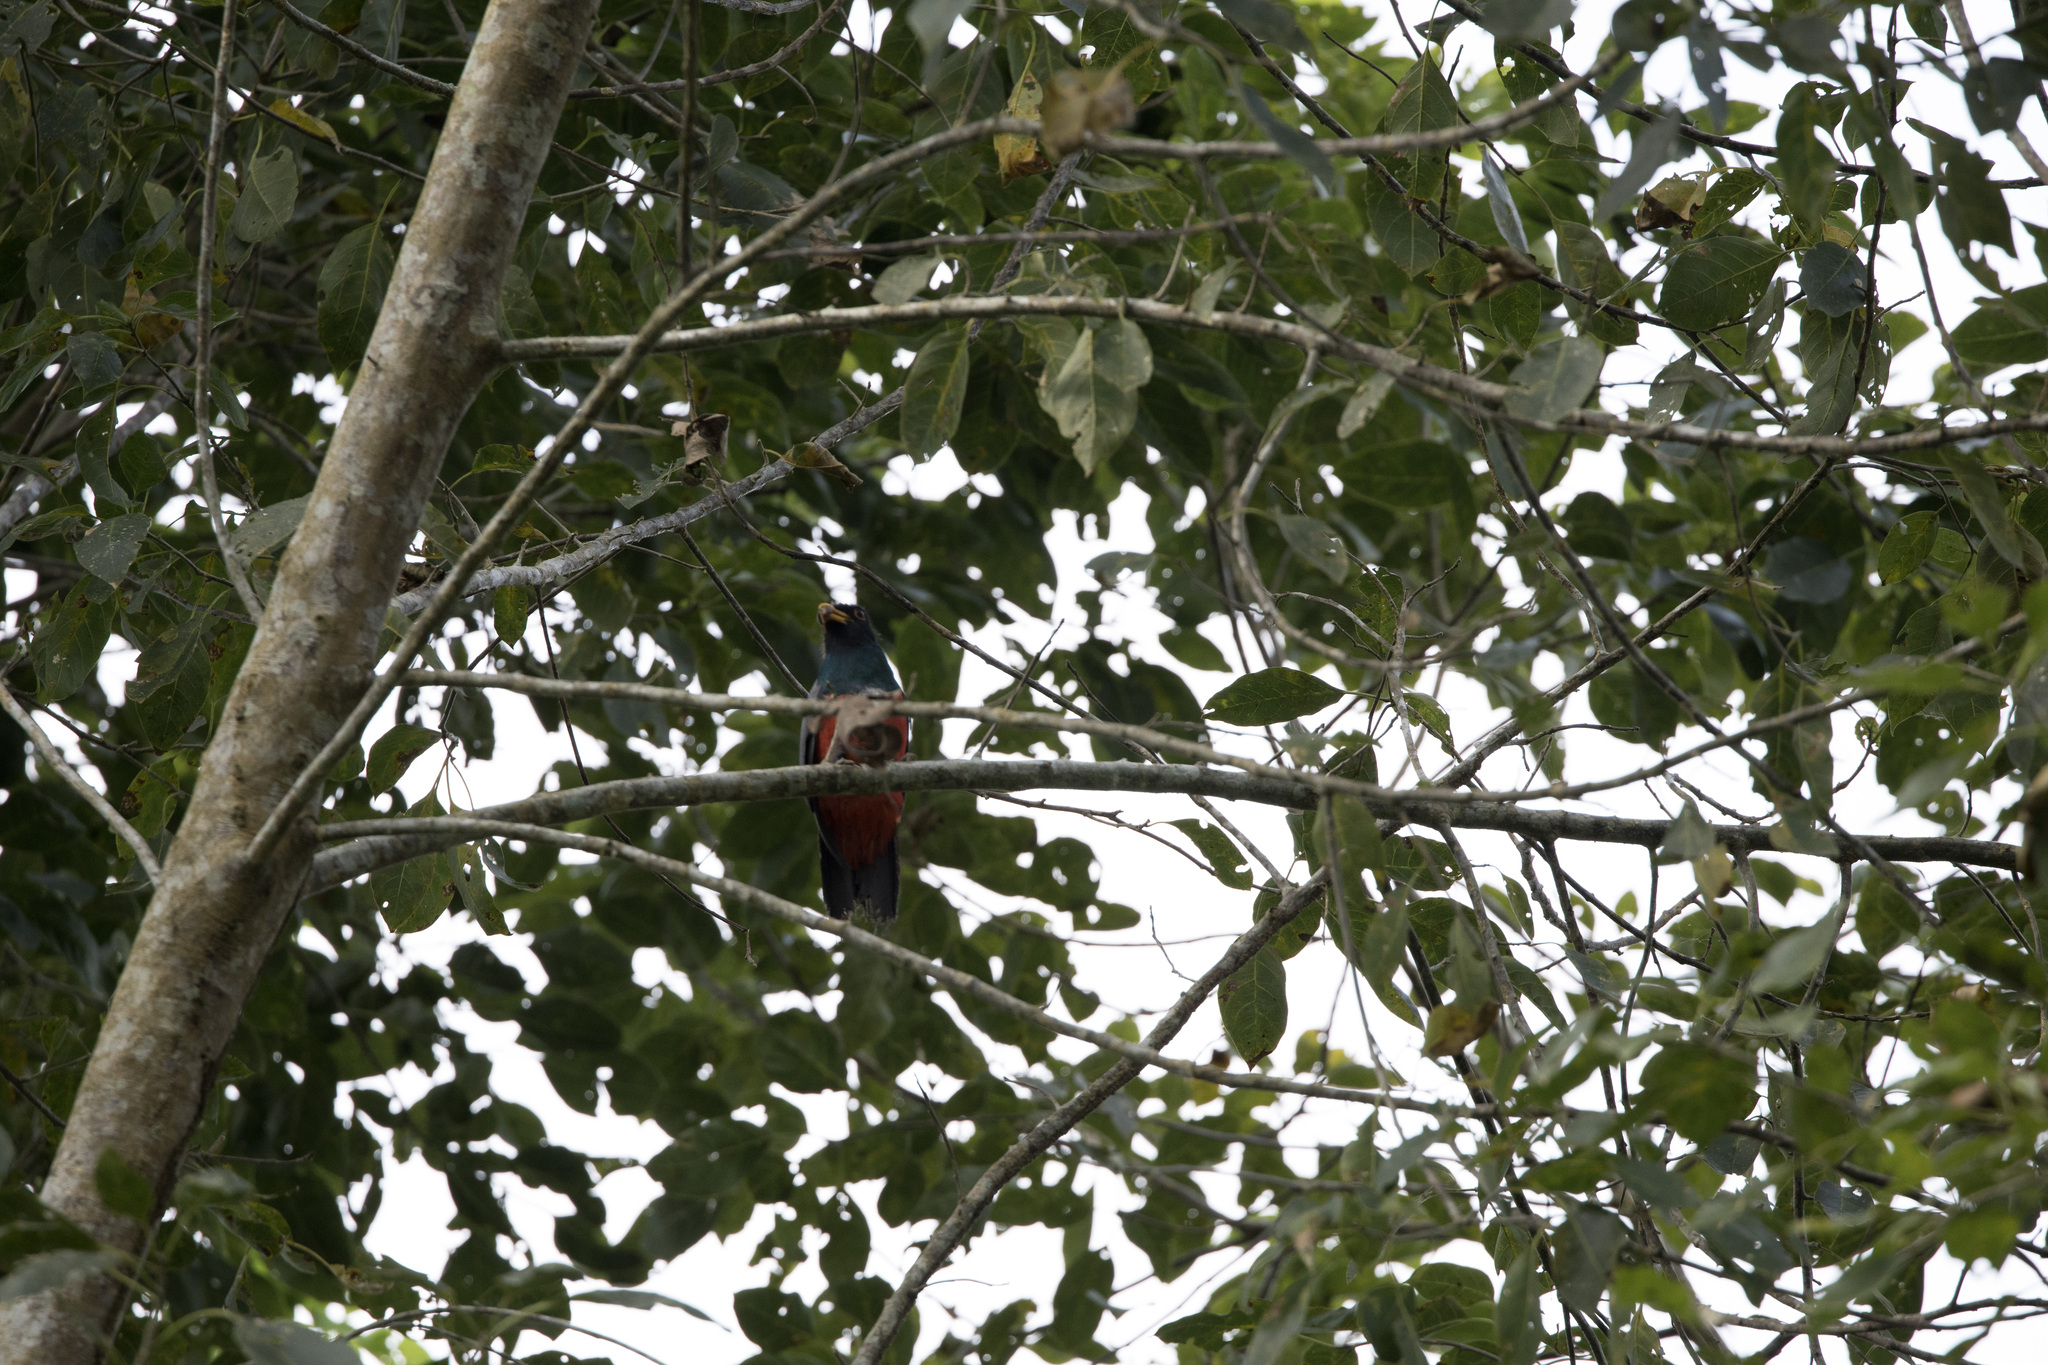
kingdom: Animalia
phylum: Chordata
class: Aves
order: Trogoniformes
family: Trogonidae
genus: Trogon
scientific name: Trogon melanurus
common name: Black-tailed trogon
